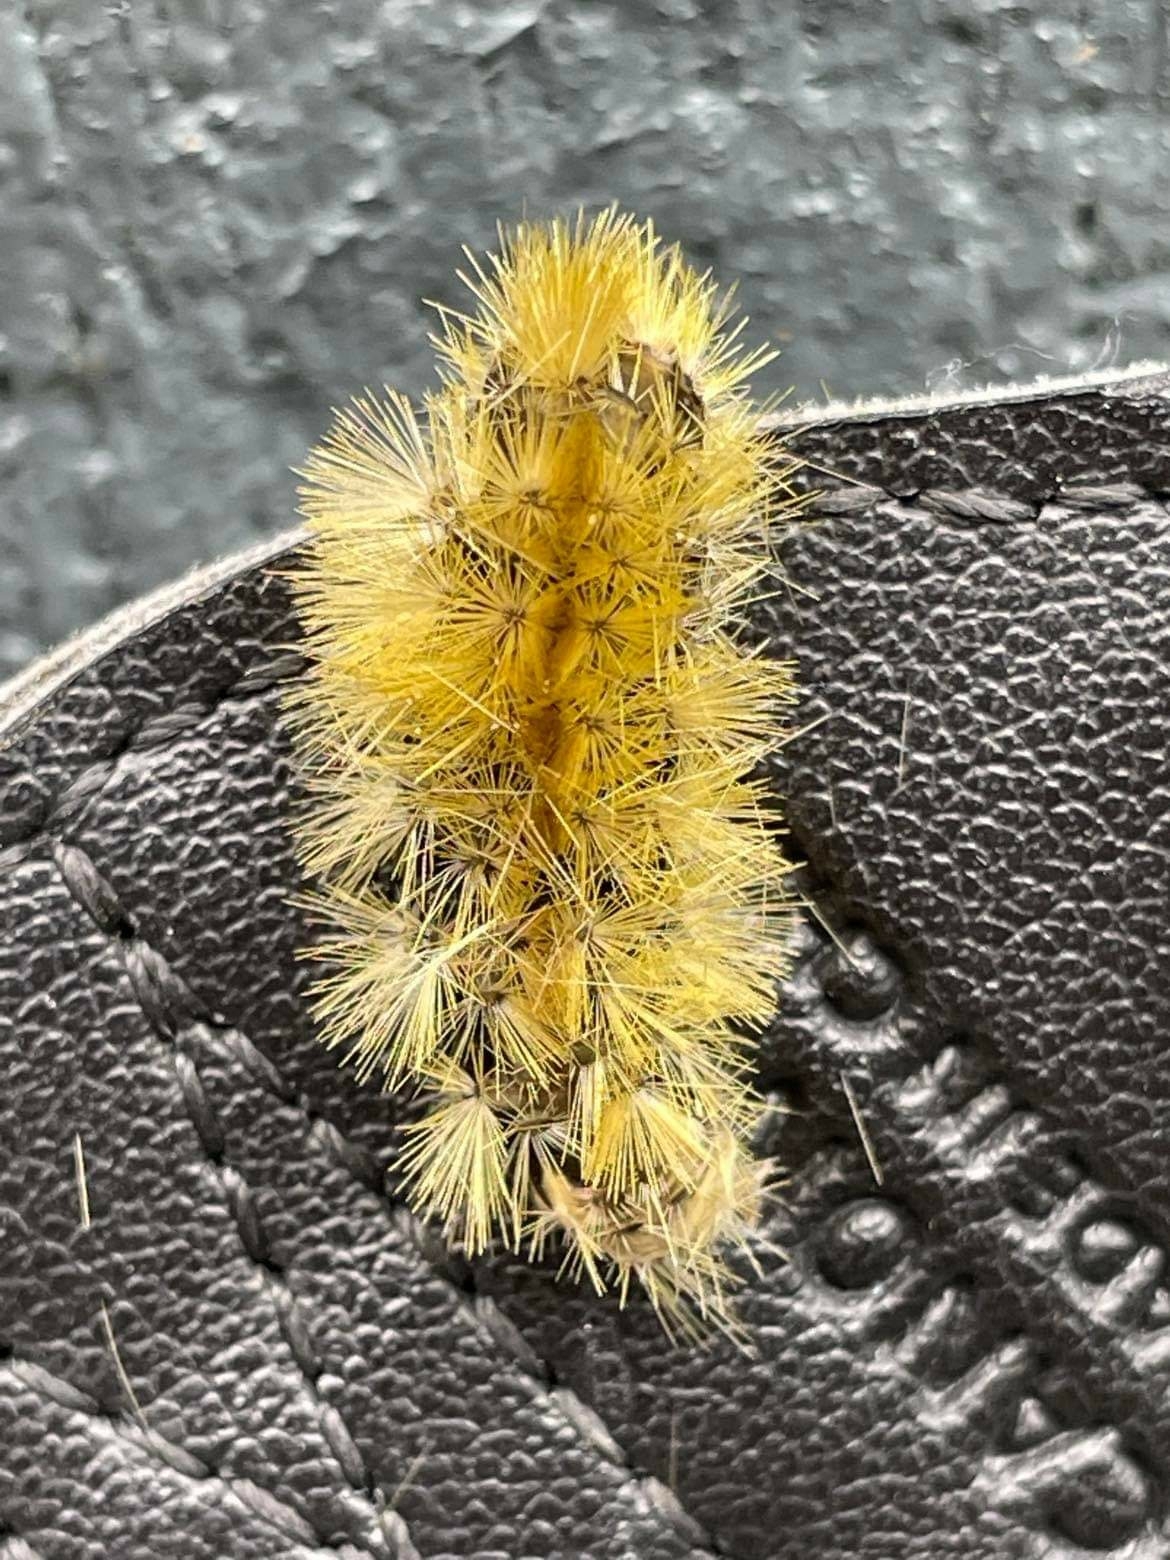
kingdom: Animalia
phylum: Arthropoda
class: Insecta
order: Lepidoptera
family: Erebidae
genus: Halysidota
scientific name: Halysidota tessellaris
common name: Banded tussock moth
